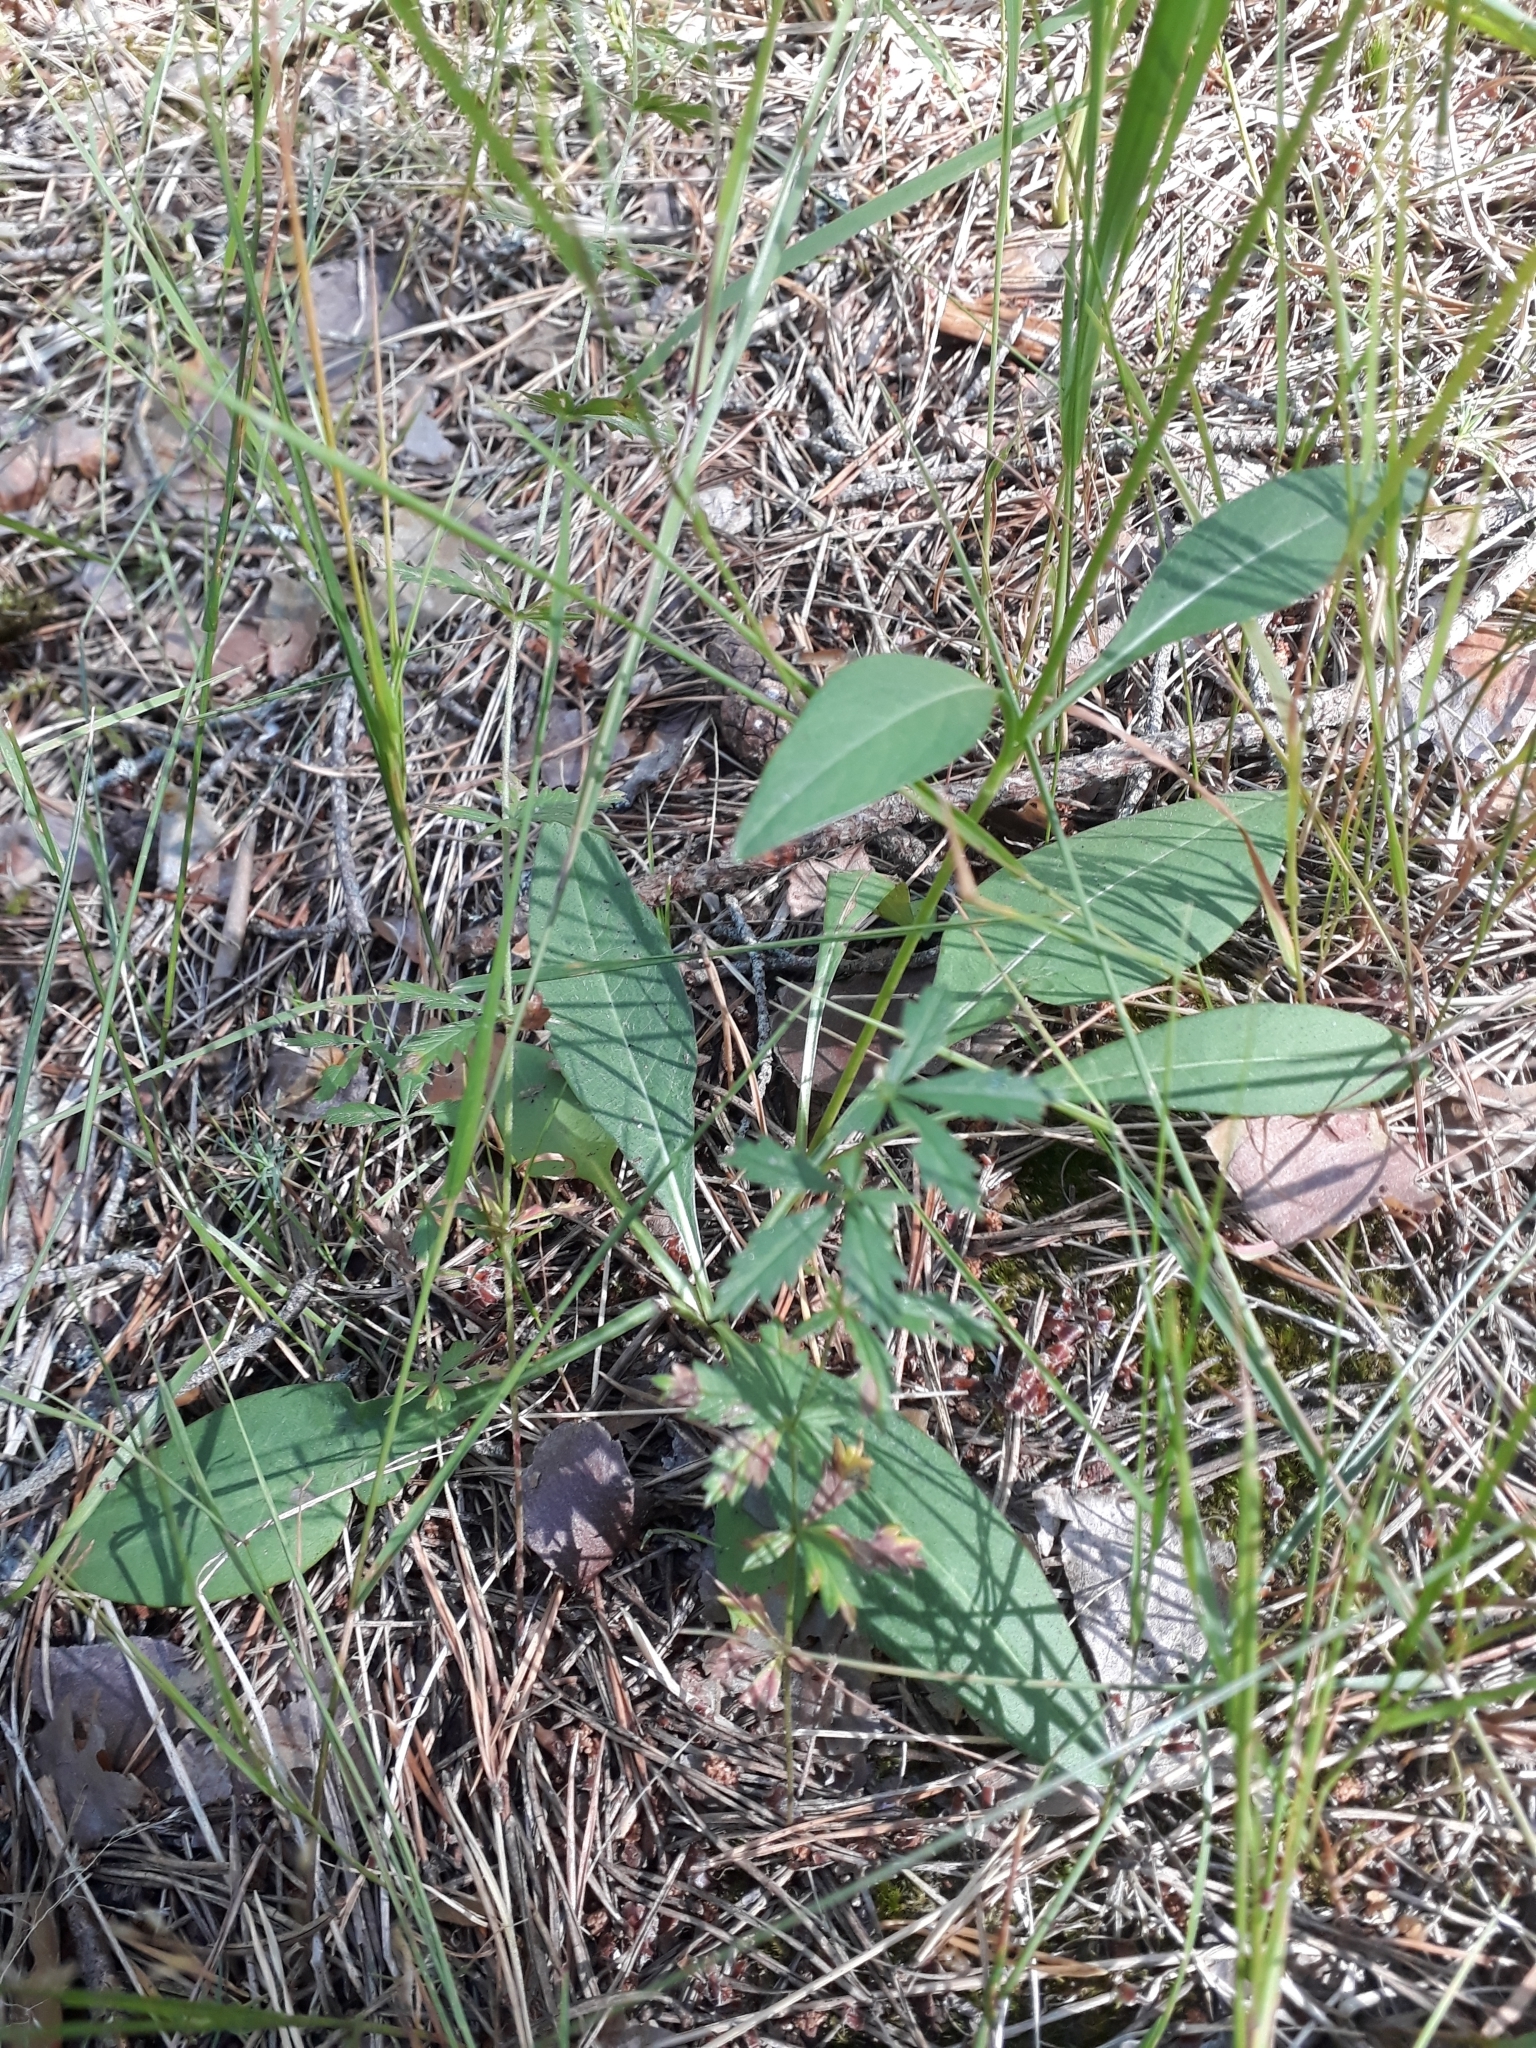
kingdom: Plantae
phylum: Tracheophyta
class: Magnoliopsida
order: Dipsacales
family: Caprifoliaceae
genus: Succisa
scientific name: Succisa pratensis
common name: Devil's-bit
